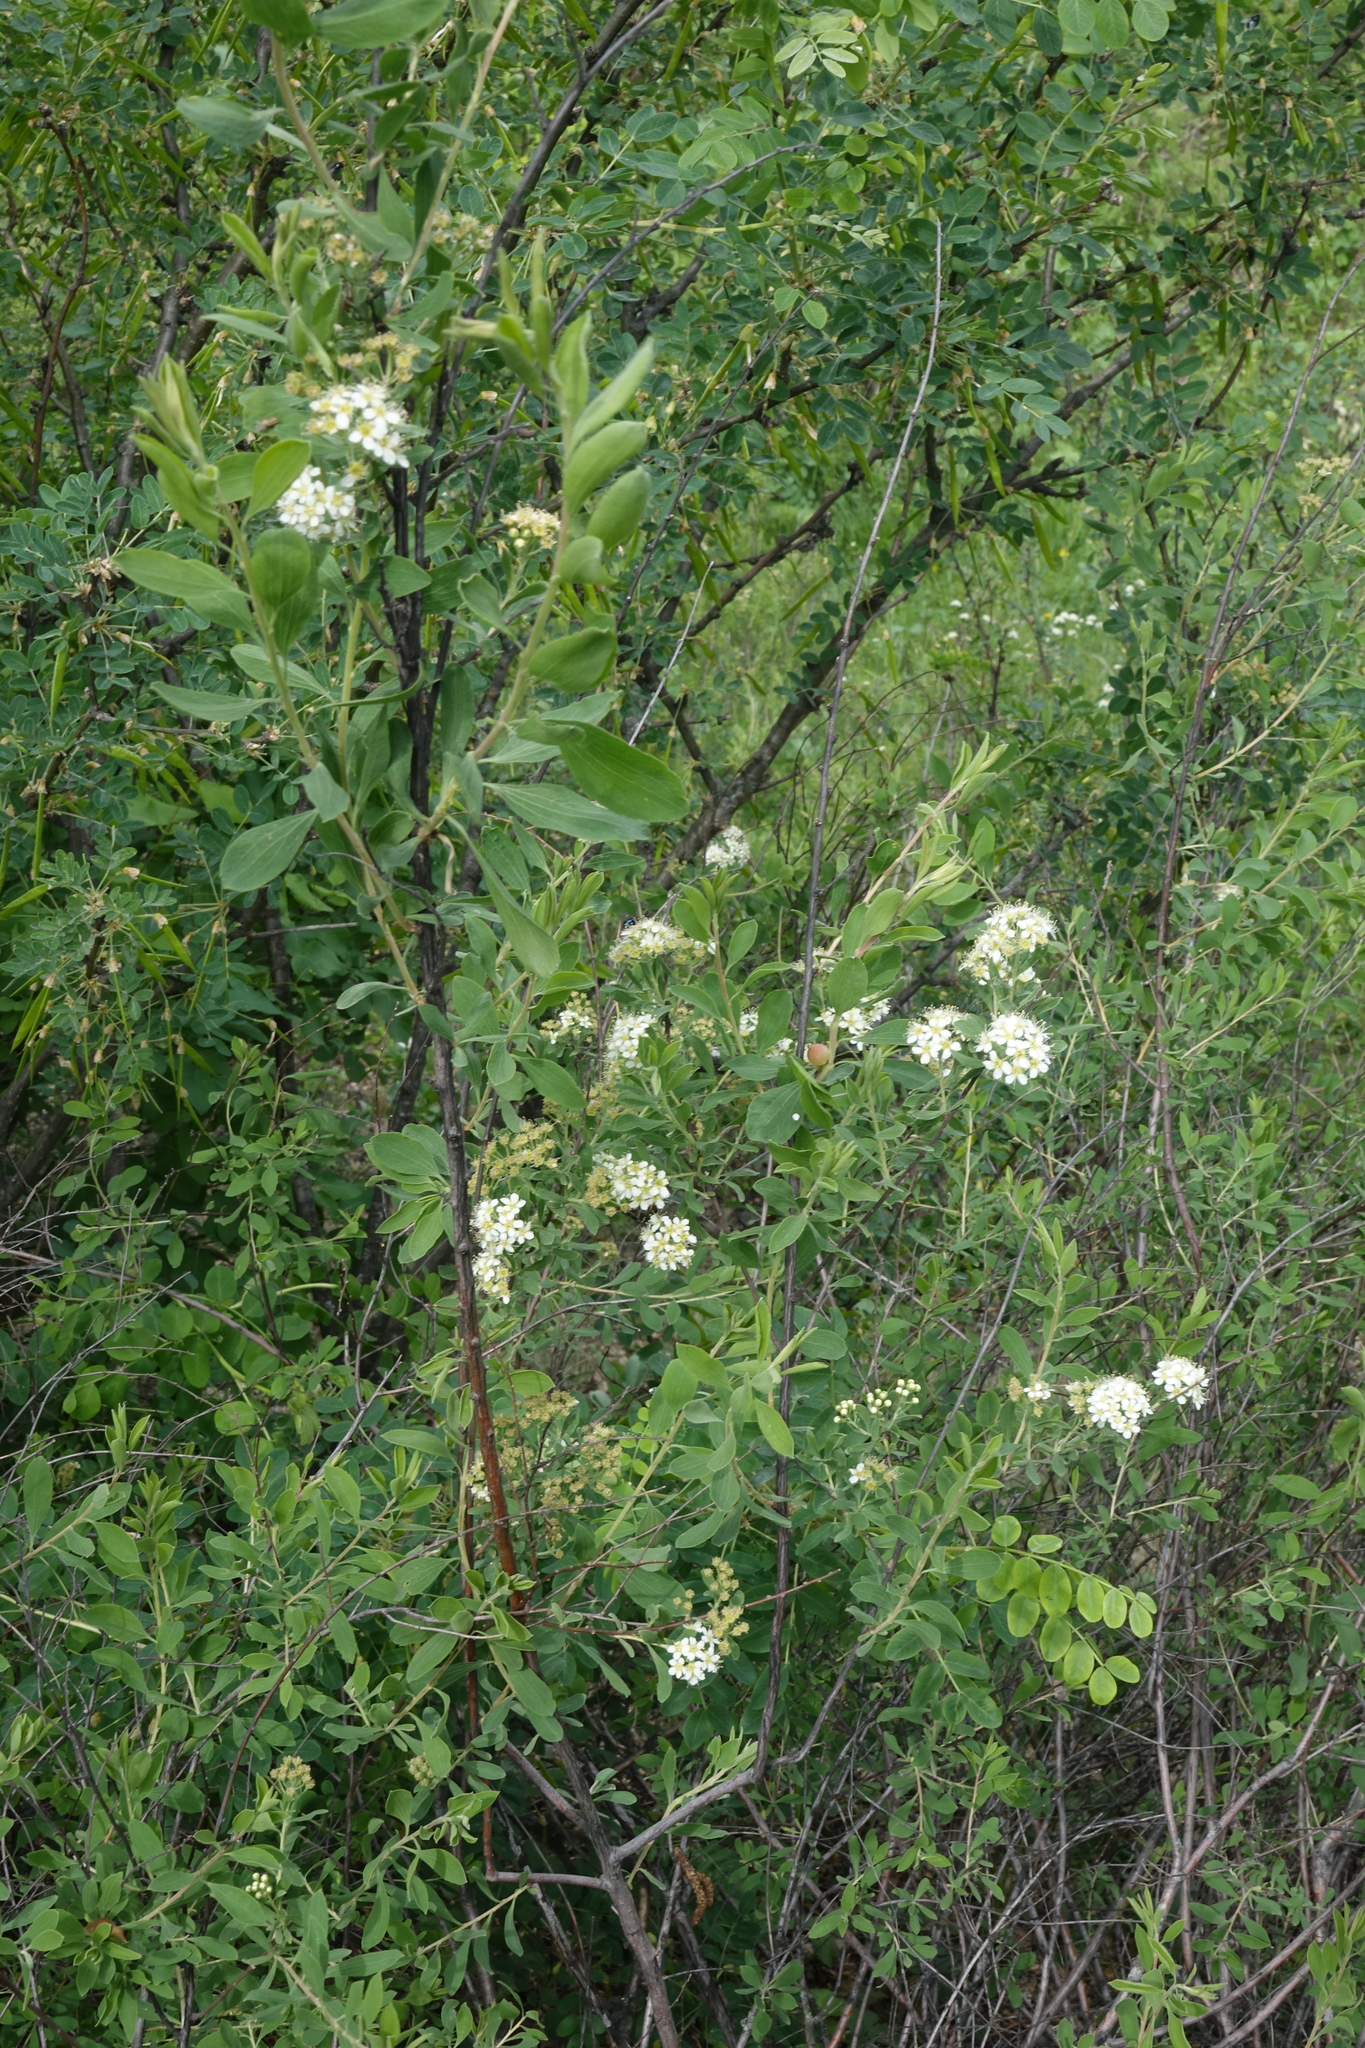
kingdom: Plantae
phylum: Tracheophyta
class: Magnoliopsida
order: Rosales
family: Rosaceae
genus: Spiraea
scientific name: Spiraea crenata
